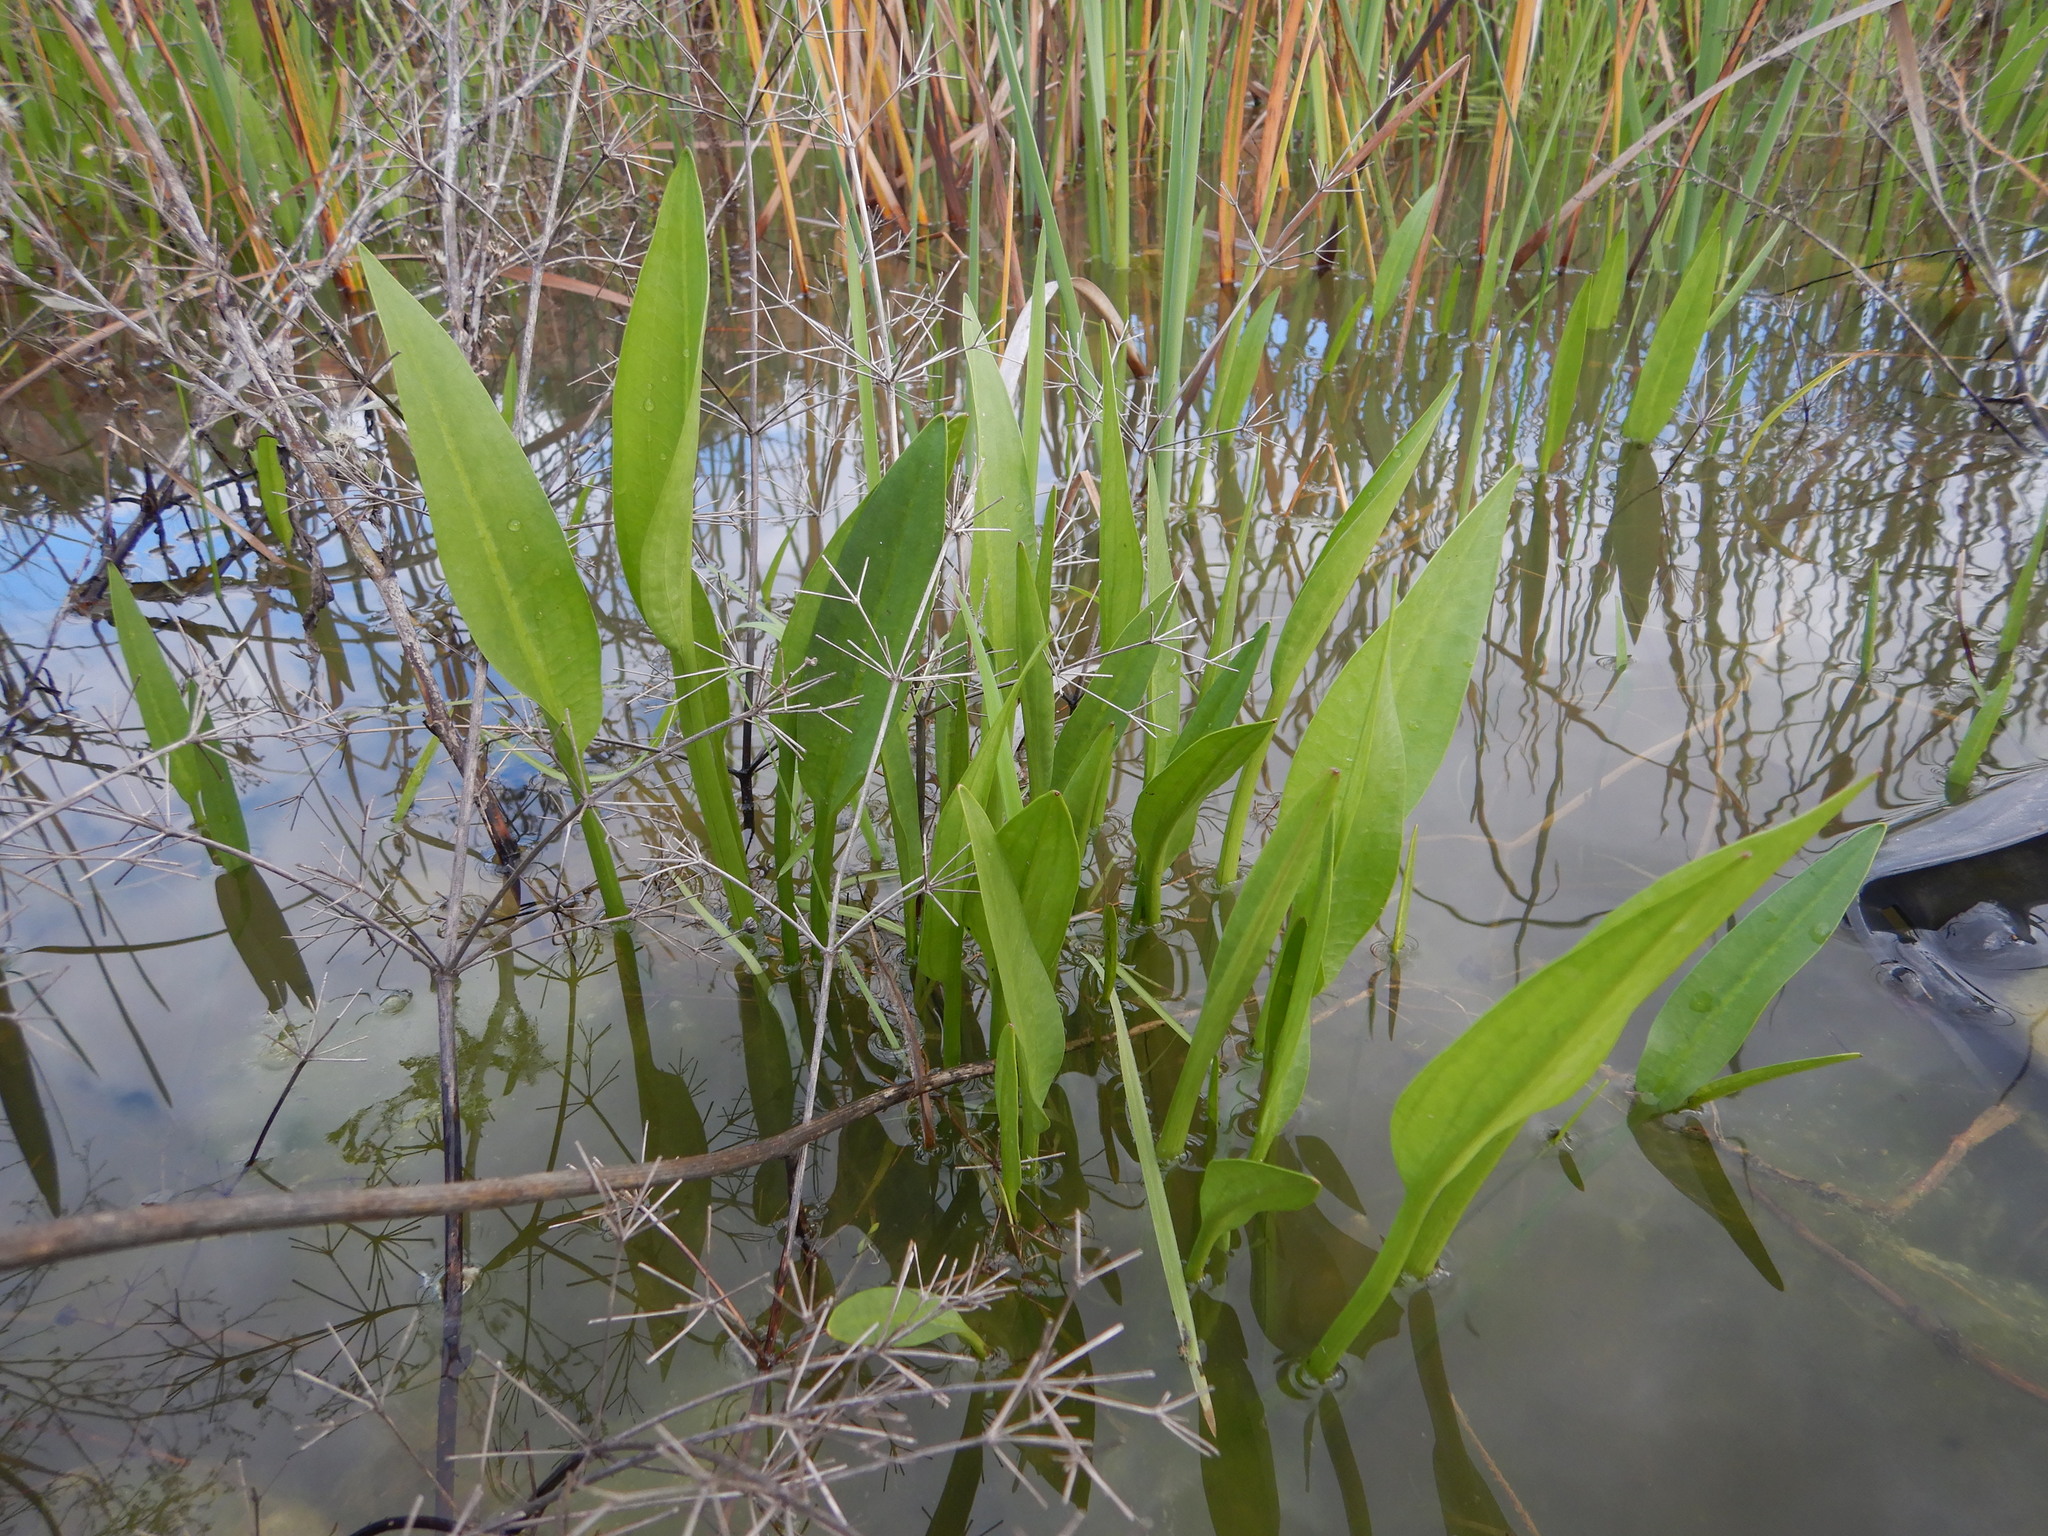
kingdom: Plantae
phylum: Tracheophyta
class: Liliopsida
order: Alismatales
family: Alismataceae
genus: Alisma
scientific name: Alisma lanceolatum
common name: Narrow-leaved water-plantain
